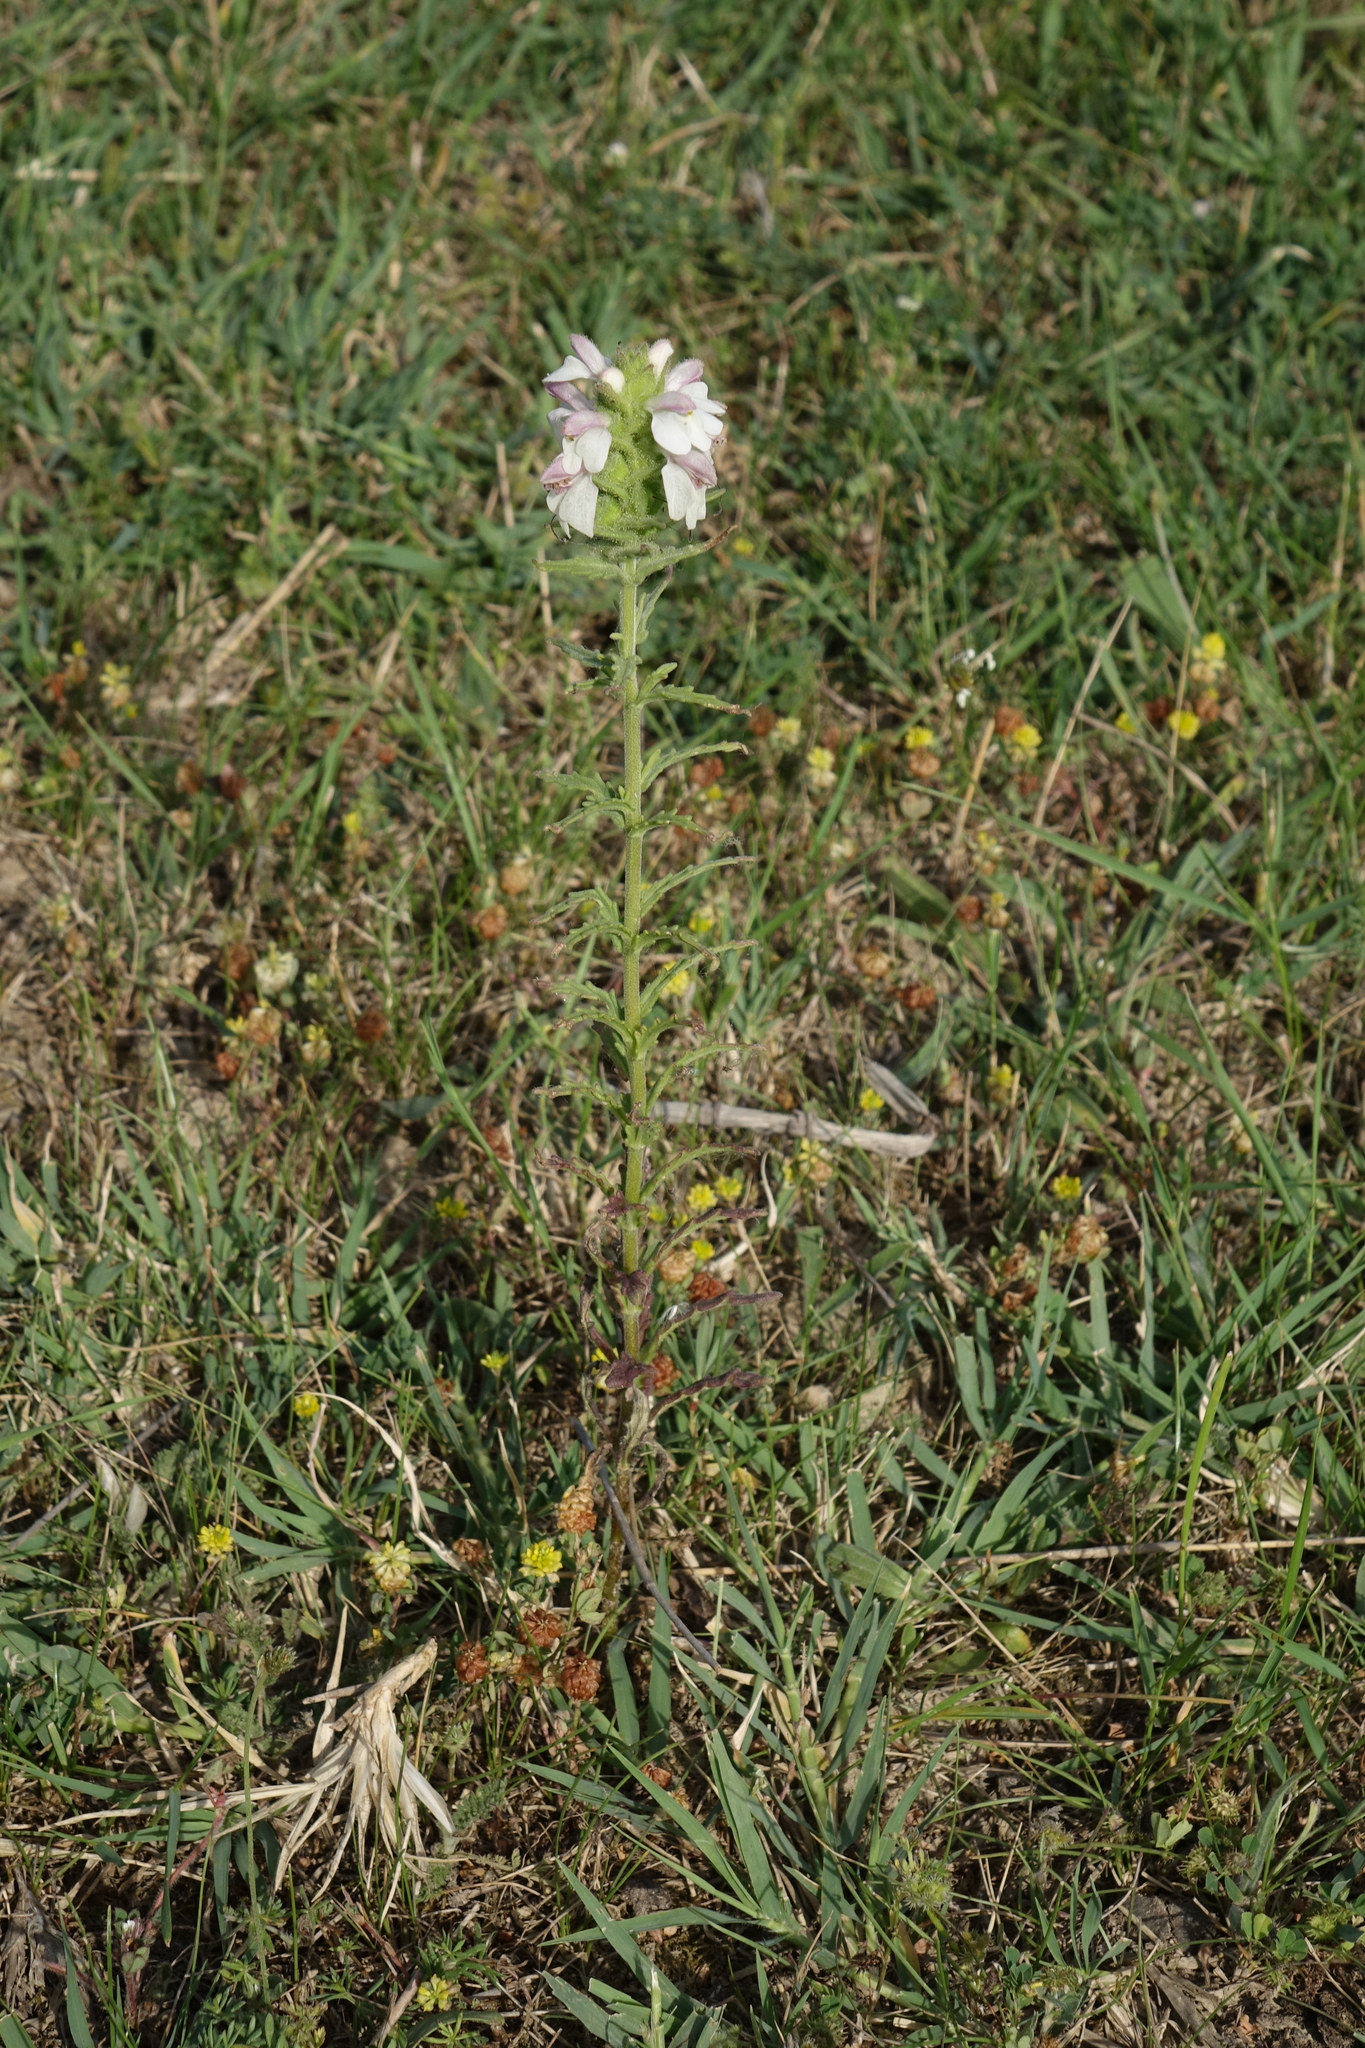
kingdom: Plantae
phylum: Tracheophyta
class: Magnoliopsida
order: Lamiales
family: Orobanchaceae
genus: Bellardia
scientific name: Bellardia trixago
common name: Mediterranean lineseed
